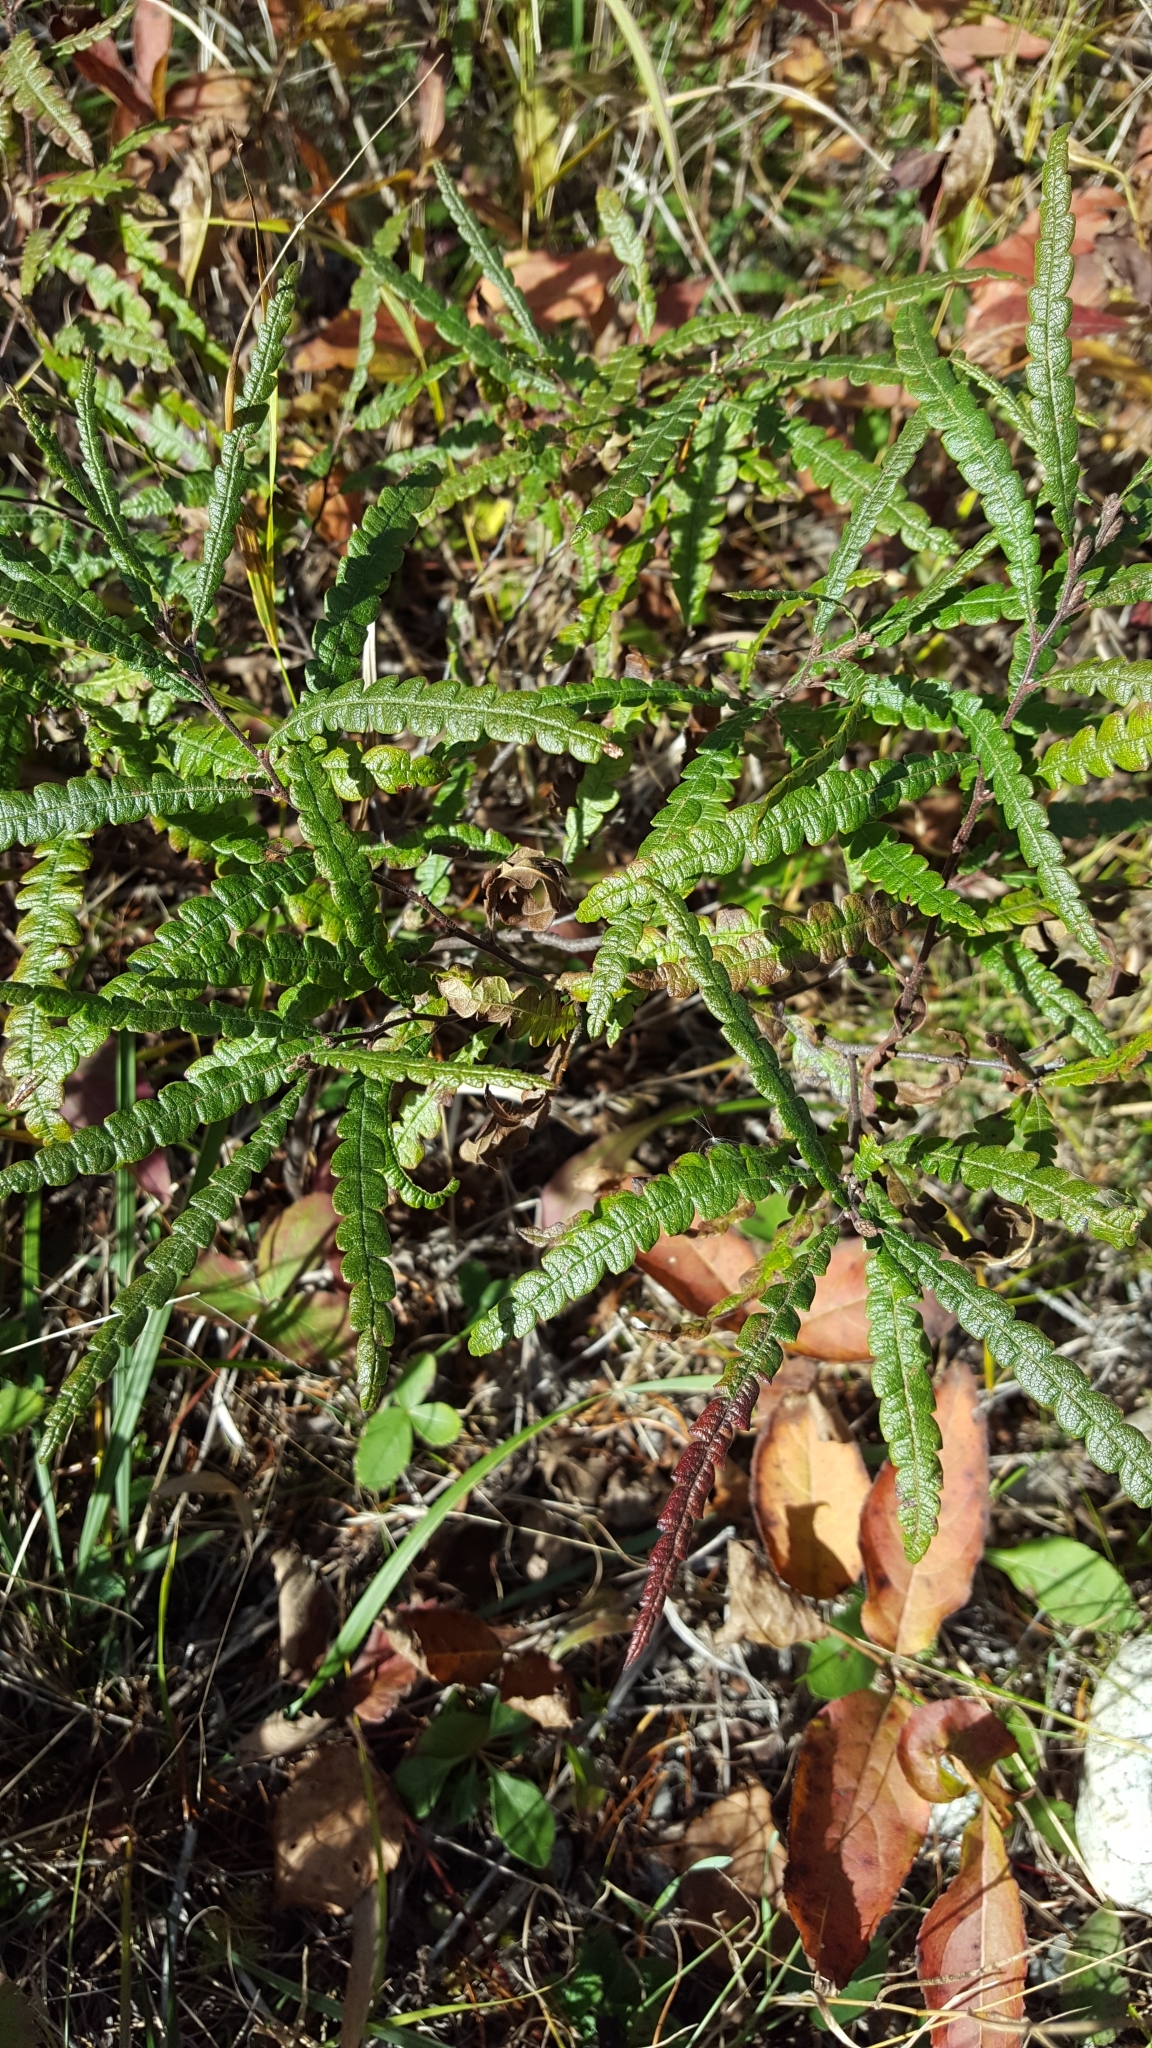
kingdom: Plantae
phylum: Tracheophyta
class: Magnoliopsida
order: Fagales
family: Myricaceae
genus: Comptonia
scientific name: Comptonia peregrina
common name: Sweet-fern
